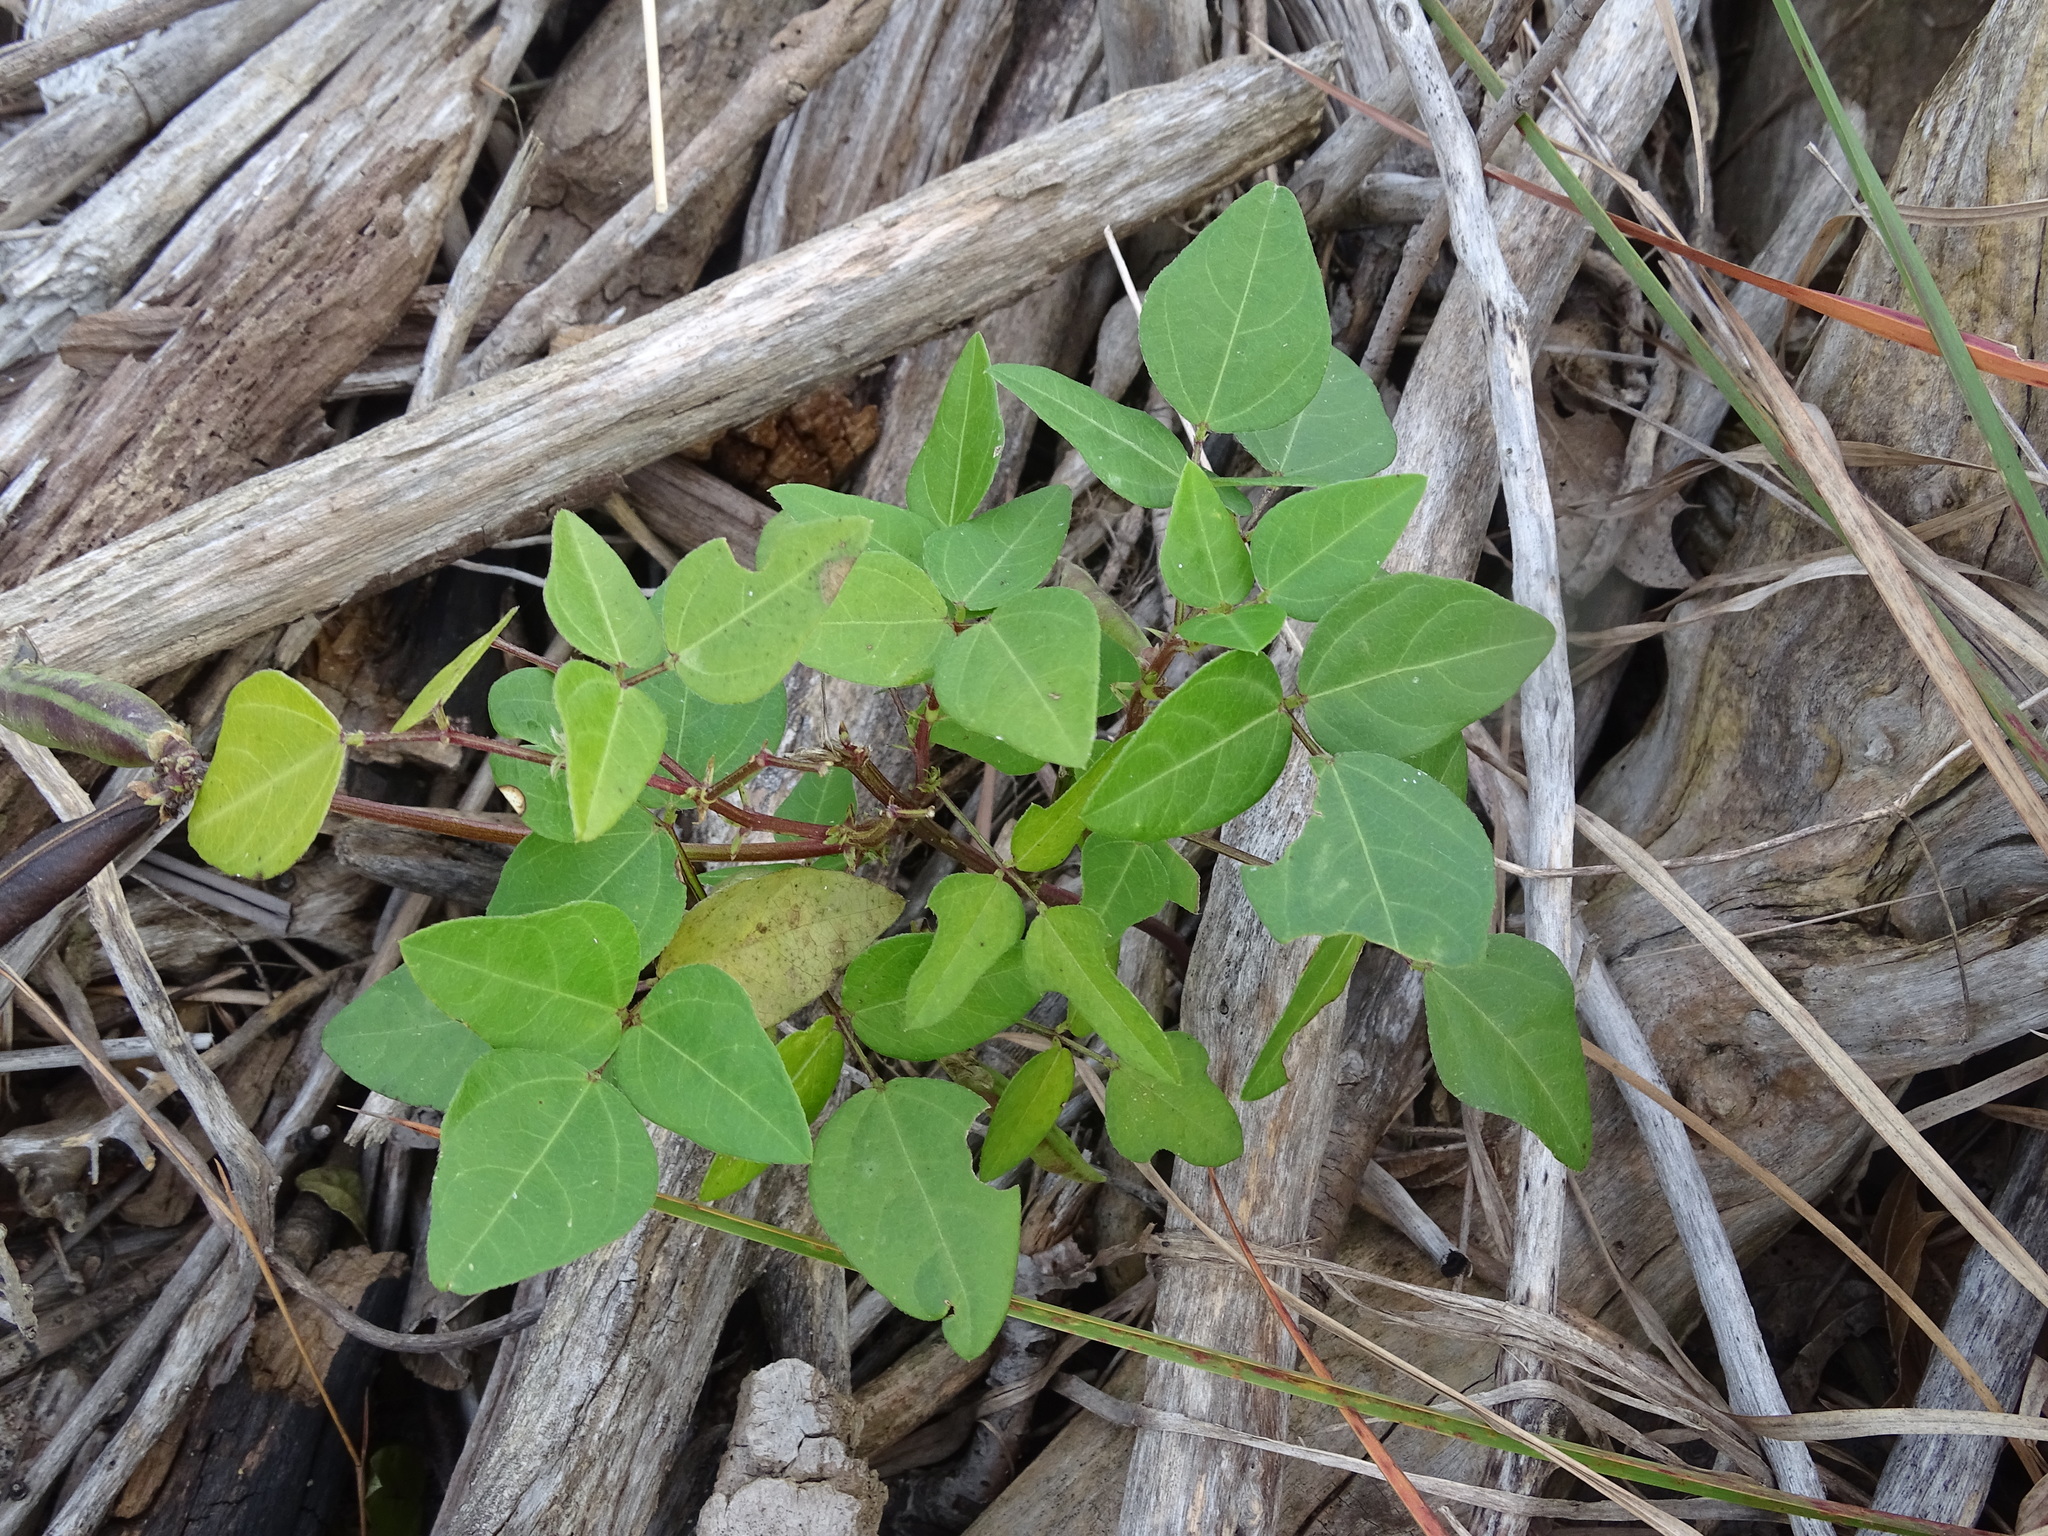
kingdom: Plantae
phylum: Tracheophyta
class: Magnoliopsida
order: Fabales
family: Fabaceae
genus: Strophostyles
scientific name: Strophostyles helvola
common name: Trailing wild bean
